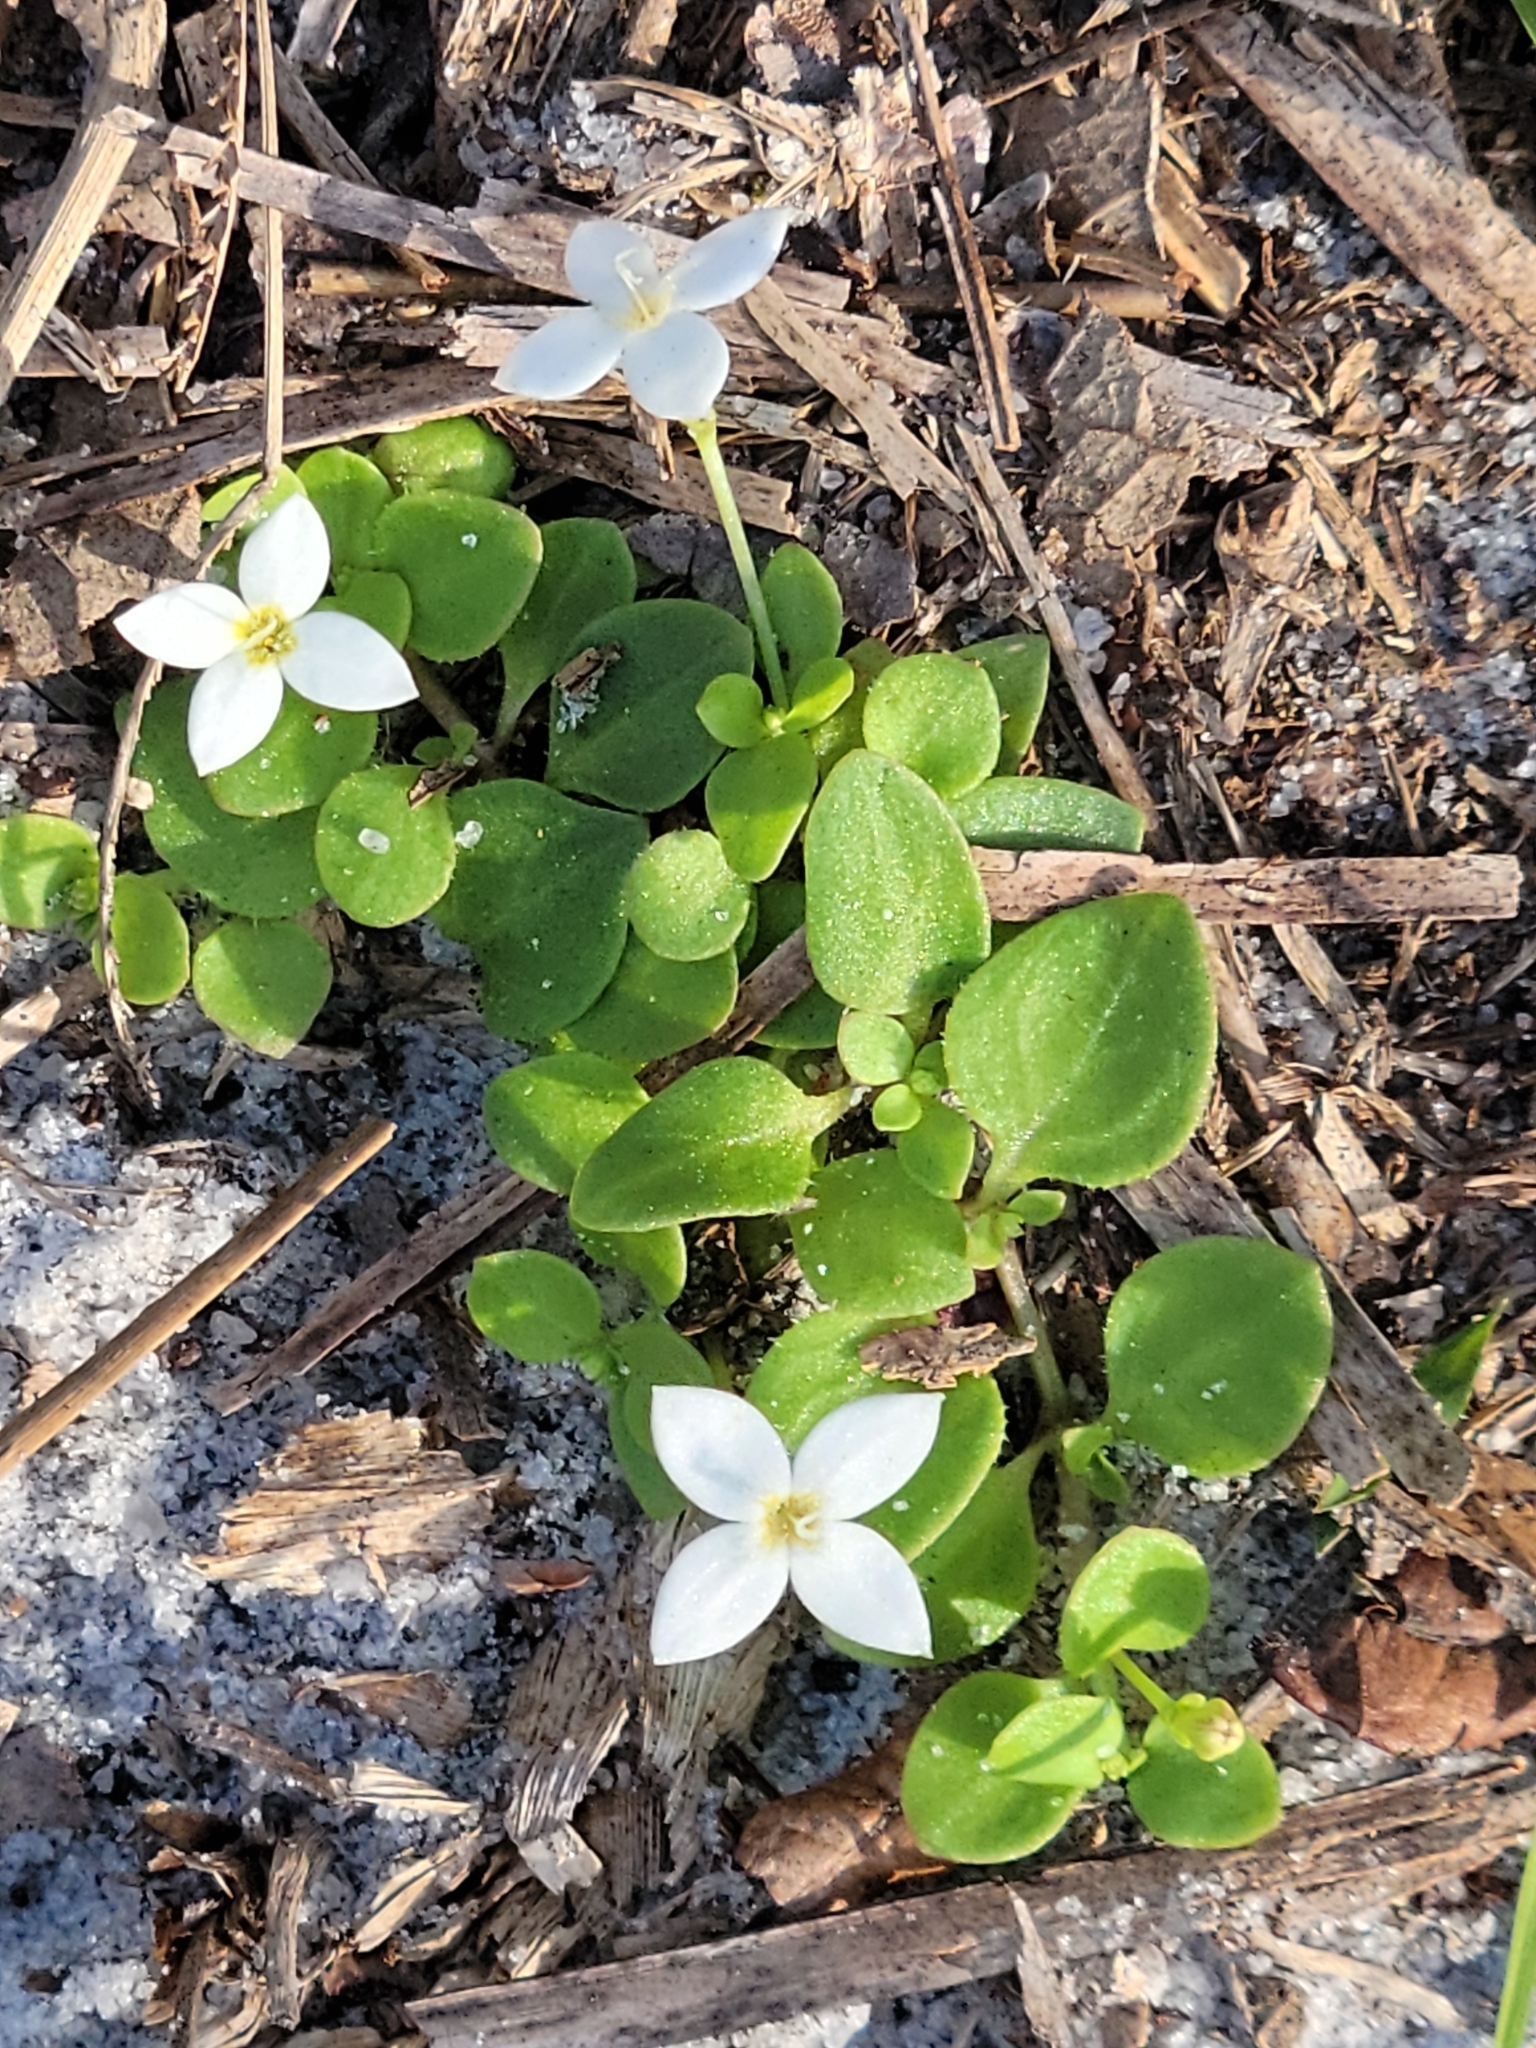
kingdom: Plantae
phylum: Tracheophyta
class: Magnoliopsida
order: Gentianales
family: Rubiaceae
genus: Houstonia
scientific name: Houstonia procumbens
